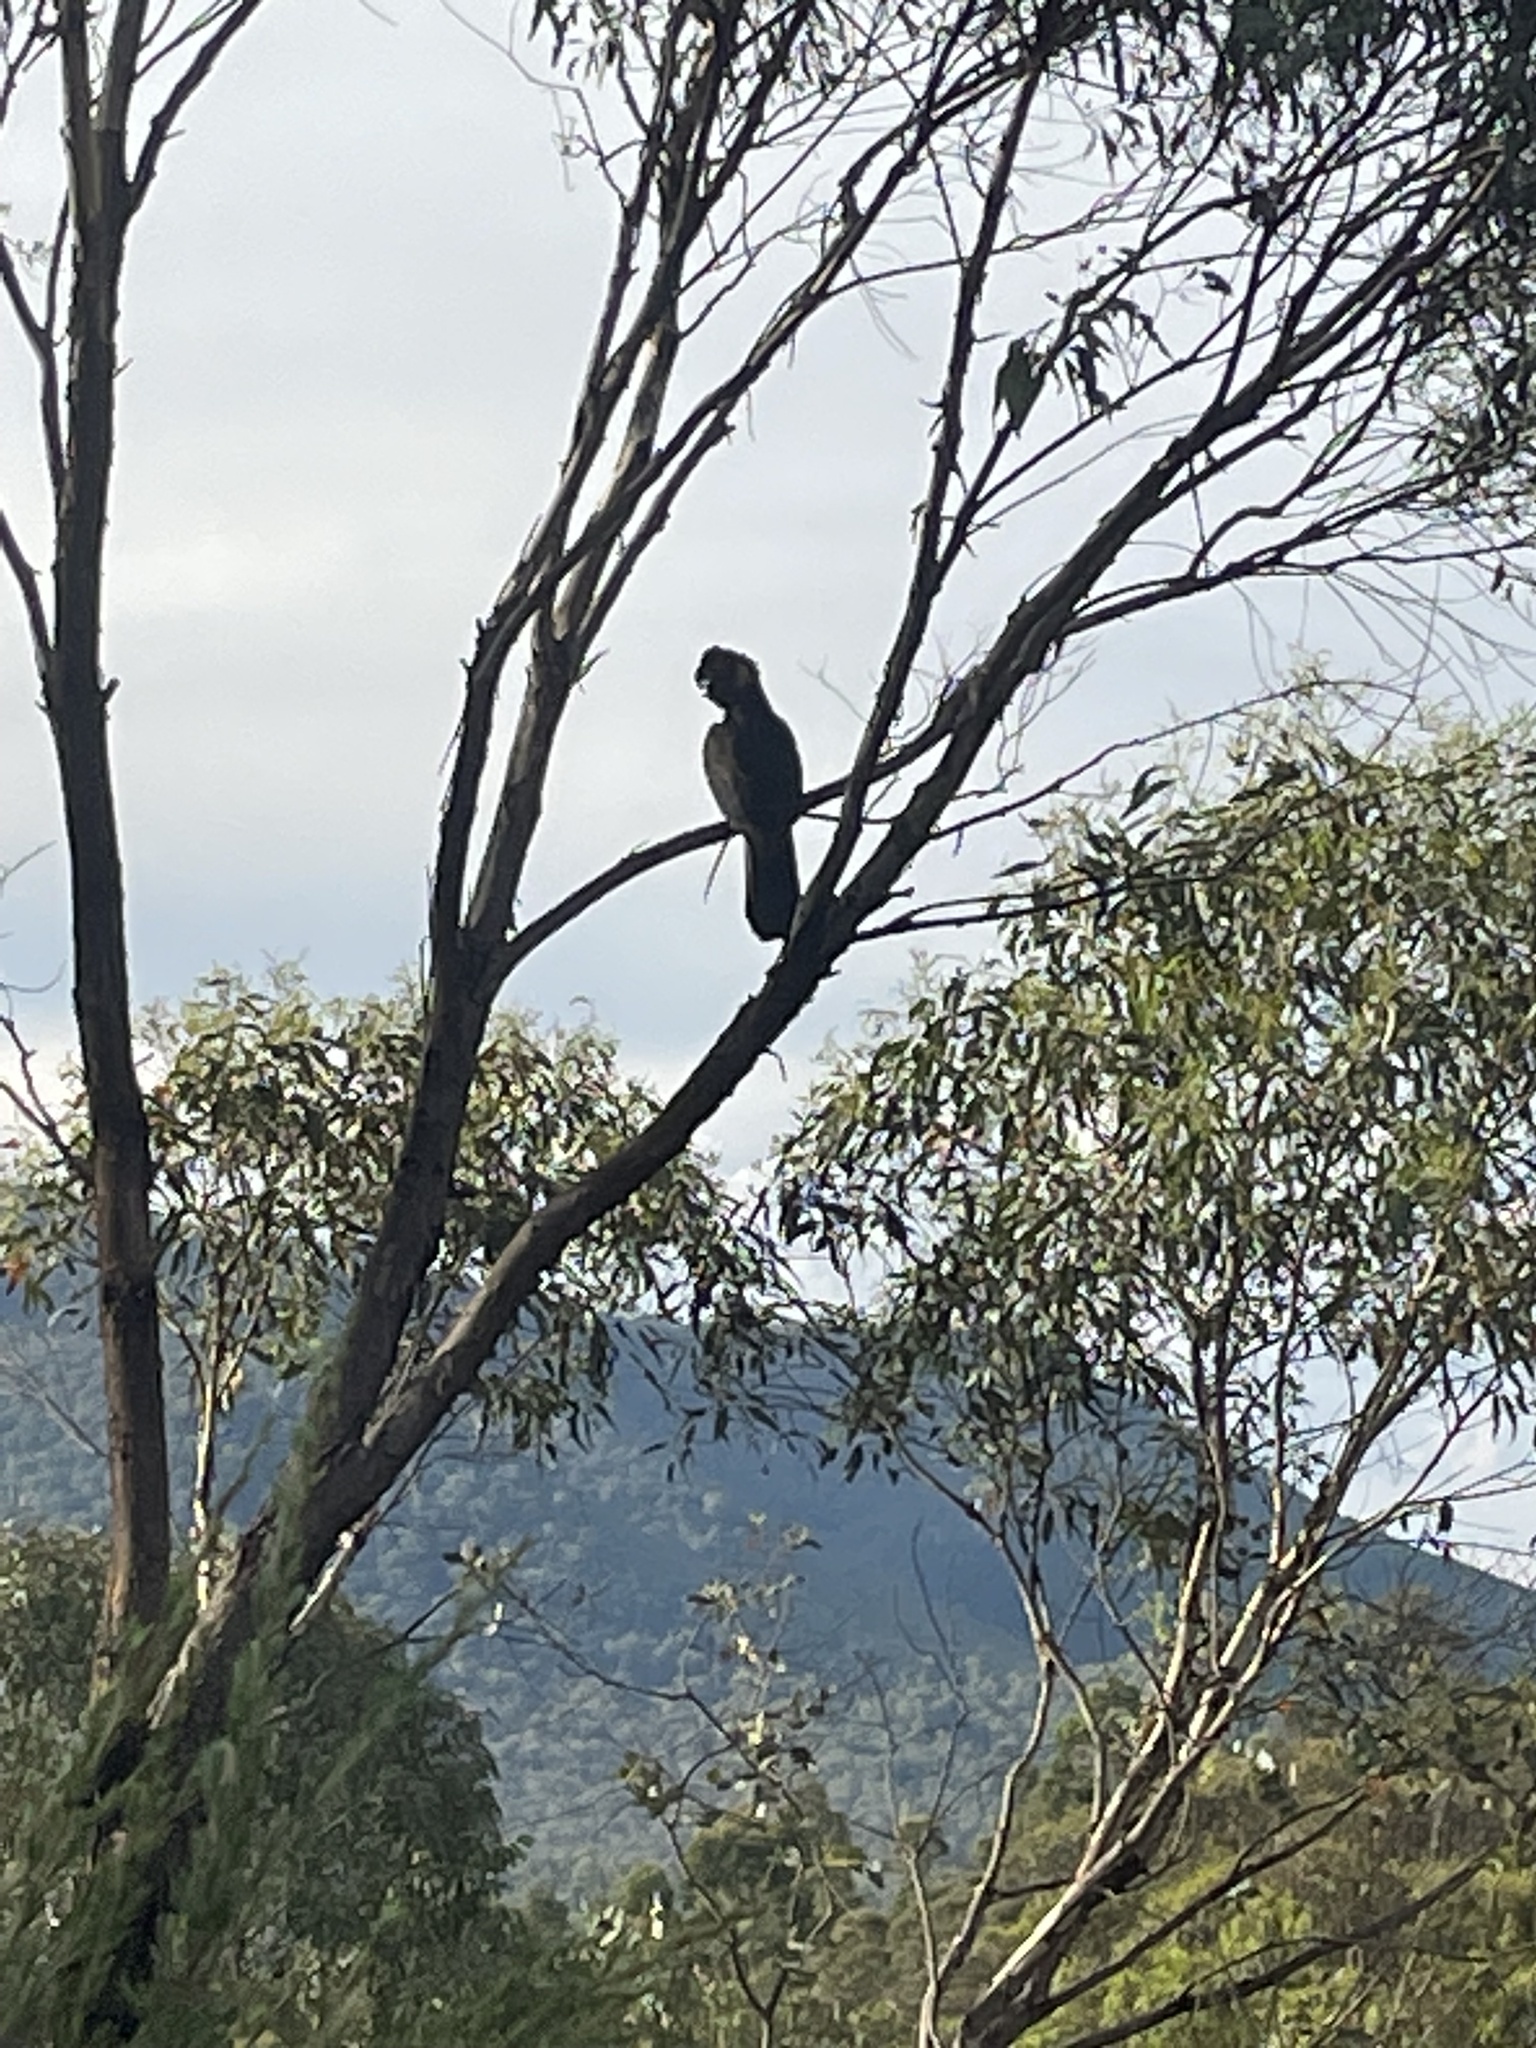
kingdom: Animalia
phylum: Chordata
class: Aves
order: Psittaciformes
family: Cacatuidae
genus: Zanda
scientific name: Zanda funerea
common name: Yellow-tailed black-cockatoo
